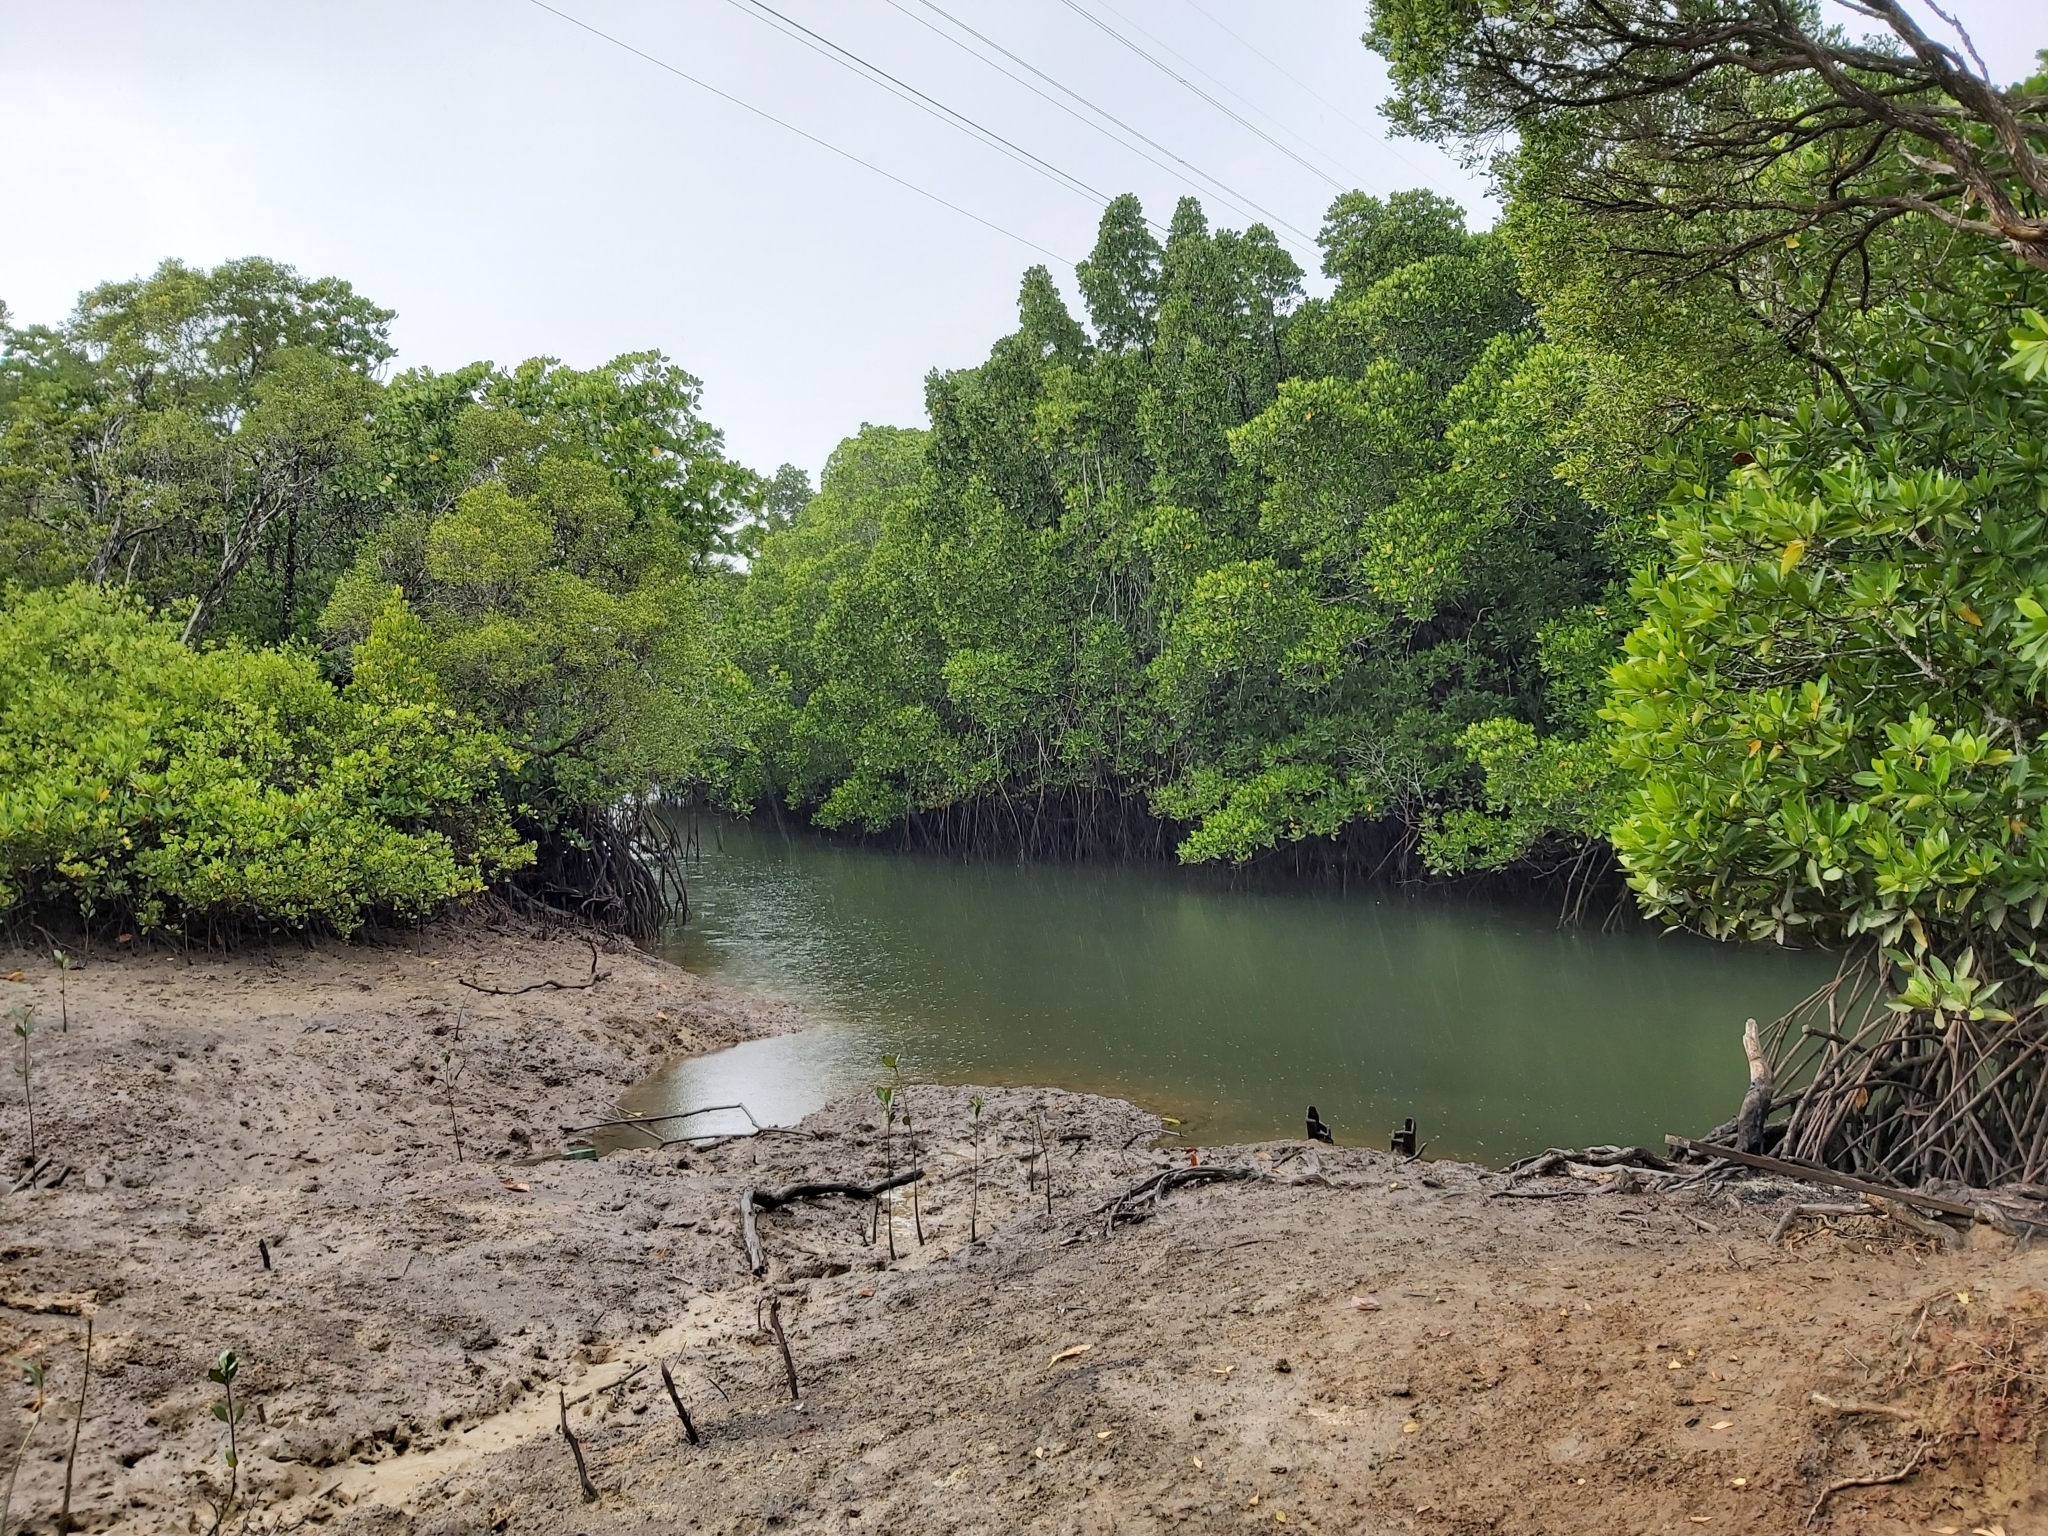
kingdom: Plantae
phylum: Tracheophyta
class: Magnoliopsida
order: Malpighiales
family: Rhizophoraceae
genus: Rhizophora
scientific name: Rhizophora apiculata
